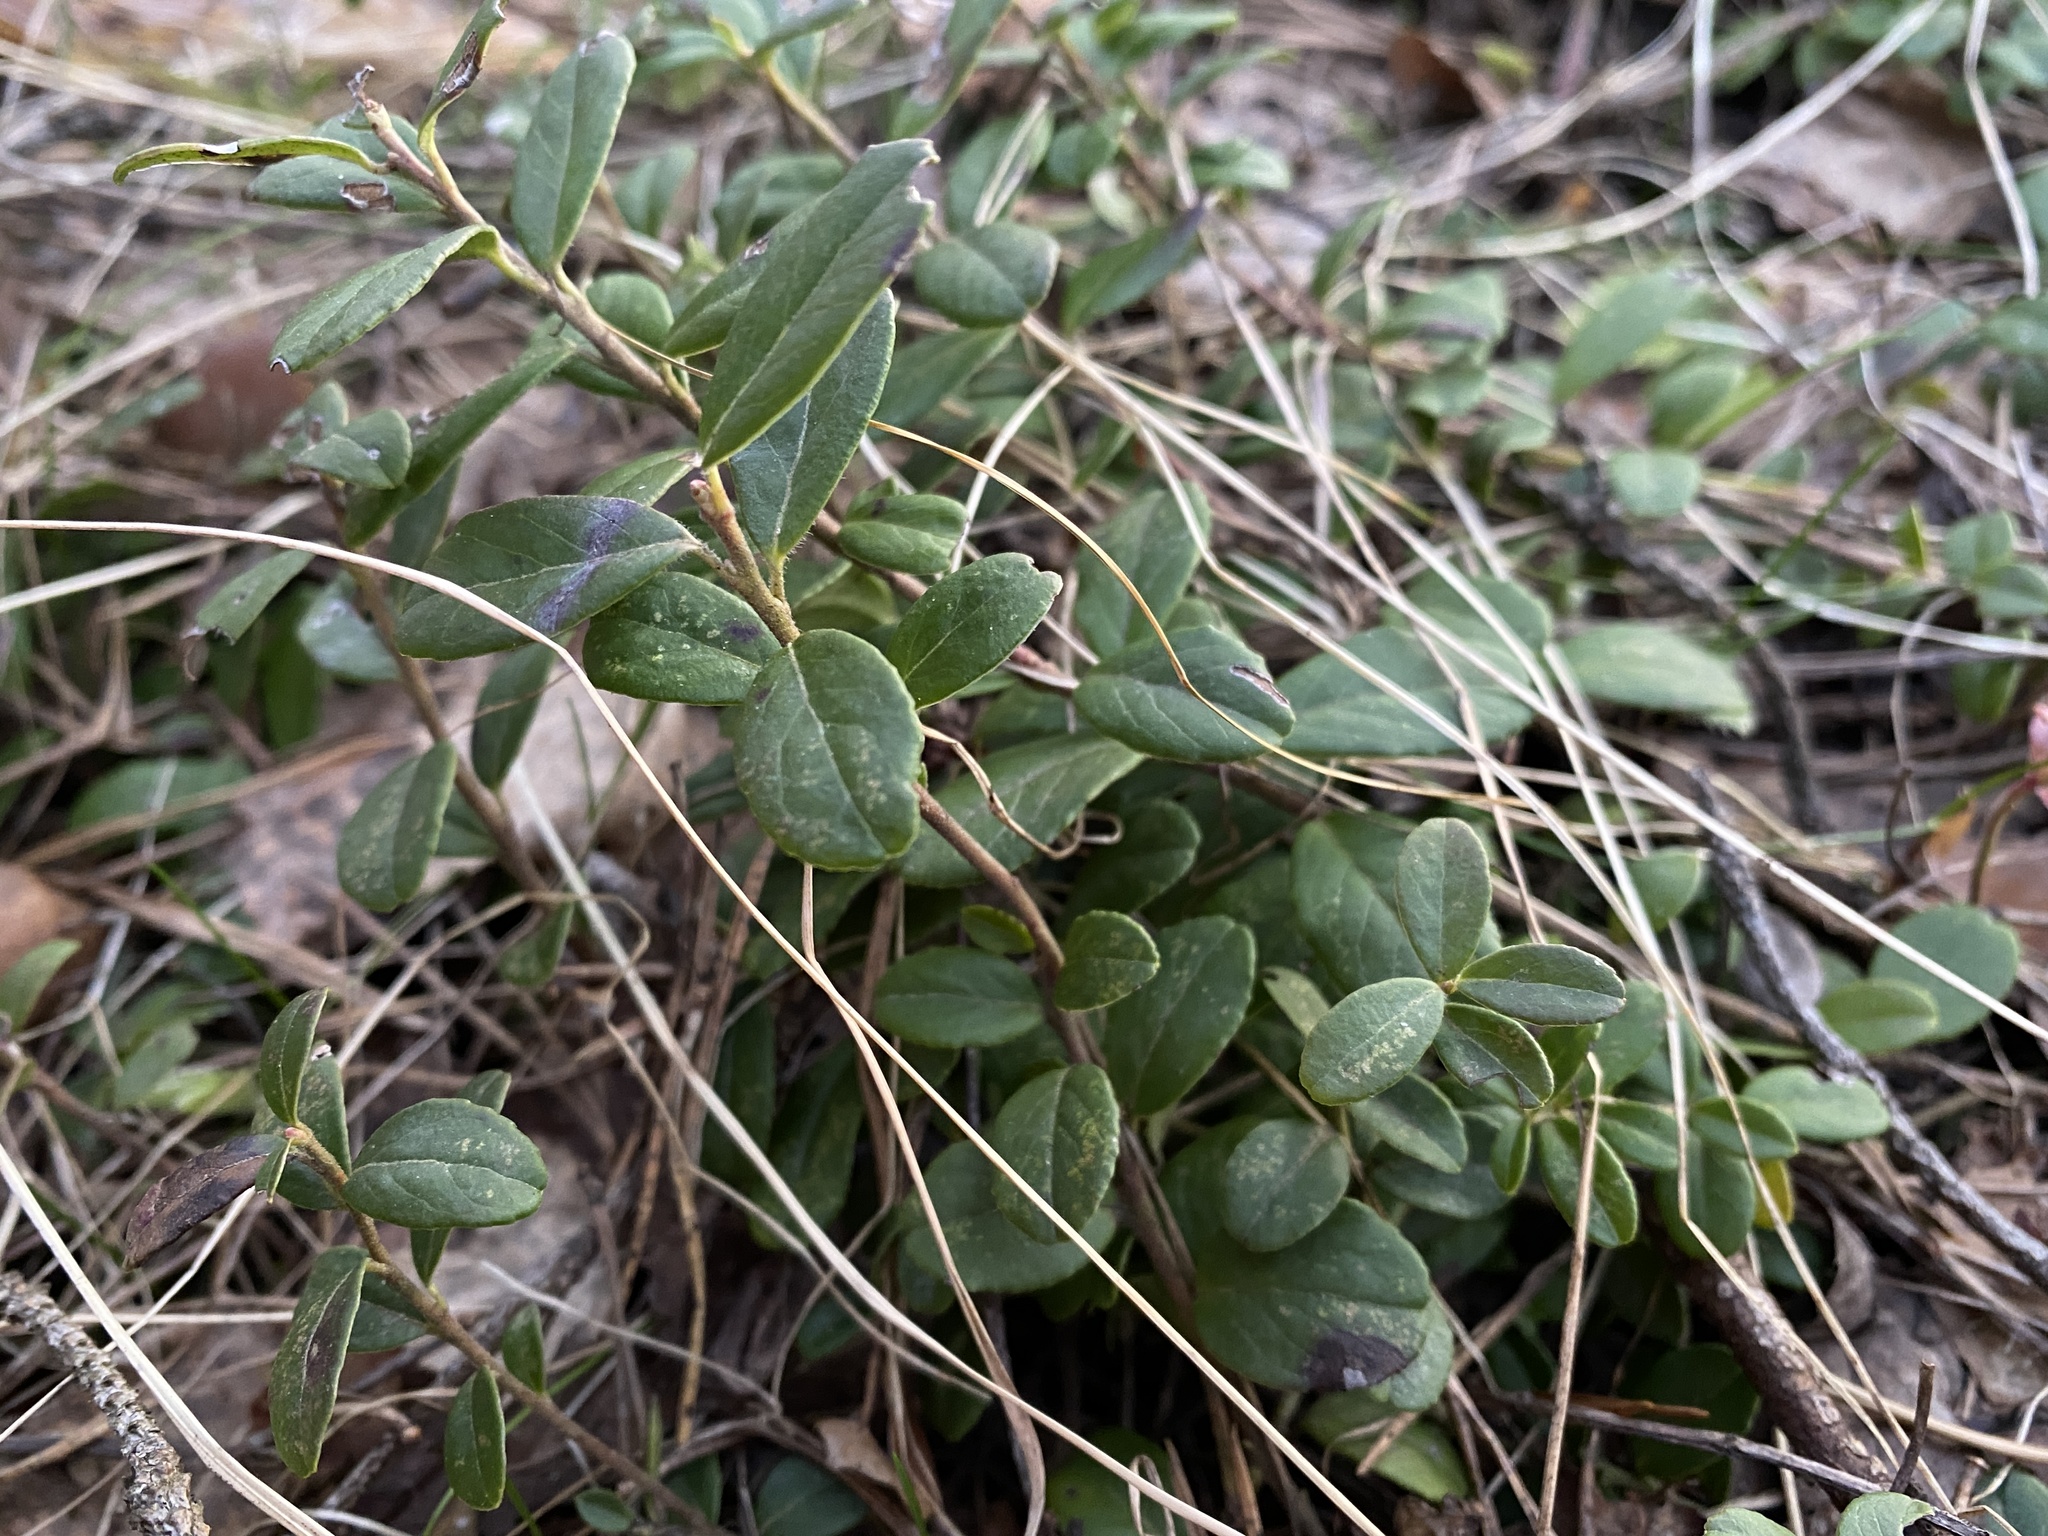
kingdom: Plantae
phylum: Tracheophyta
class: Magnoliopsida
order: Ericales
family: Ericaceae
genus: Vaccinium
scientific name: Vaccinium vitis-idaea
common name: Cowberry
